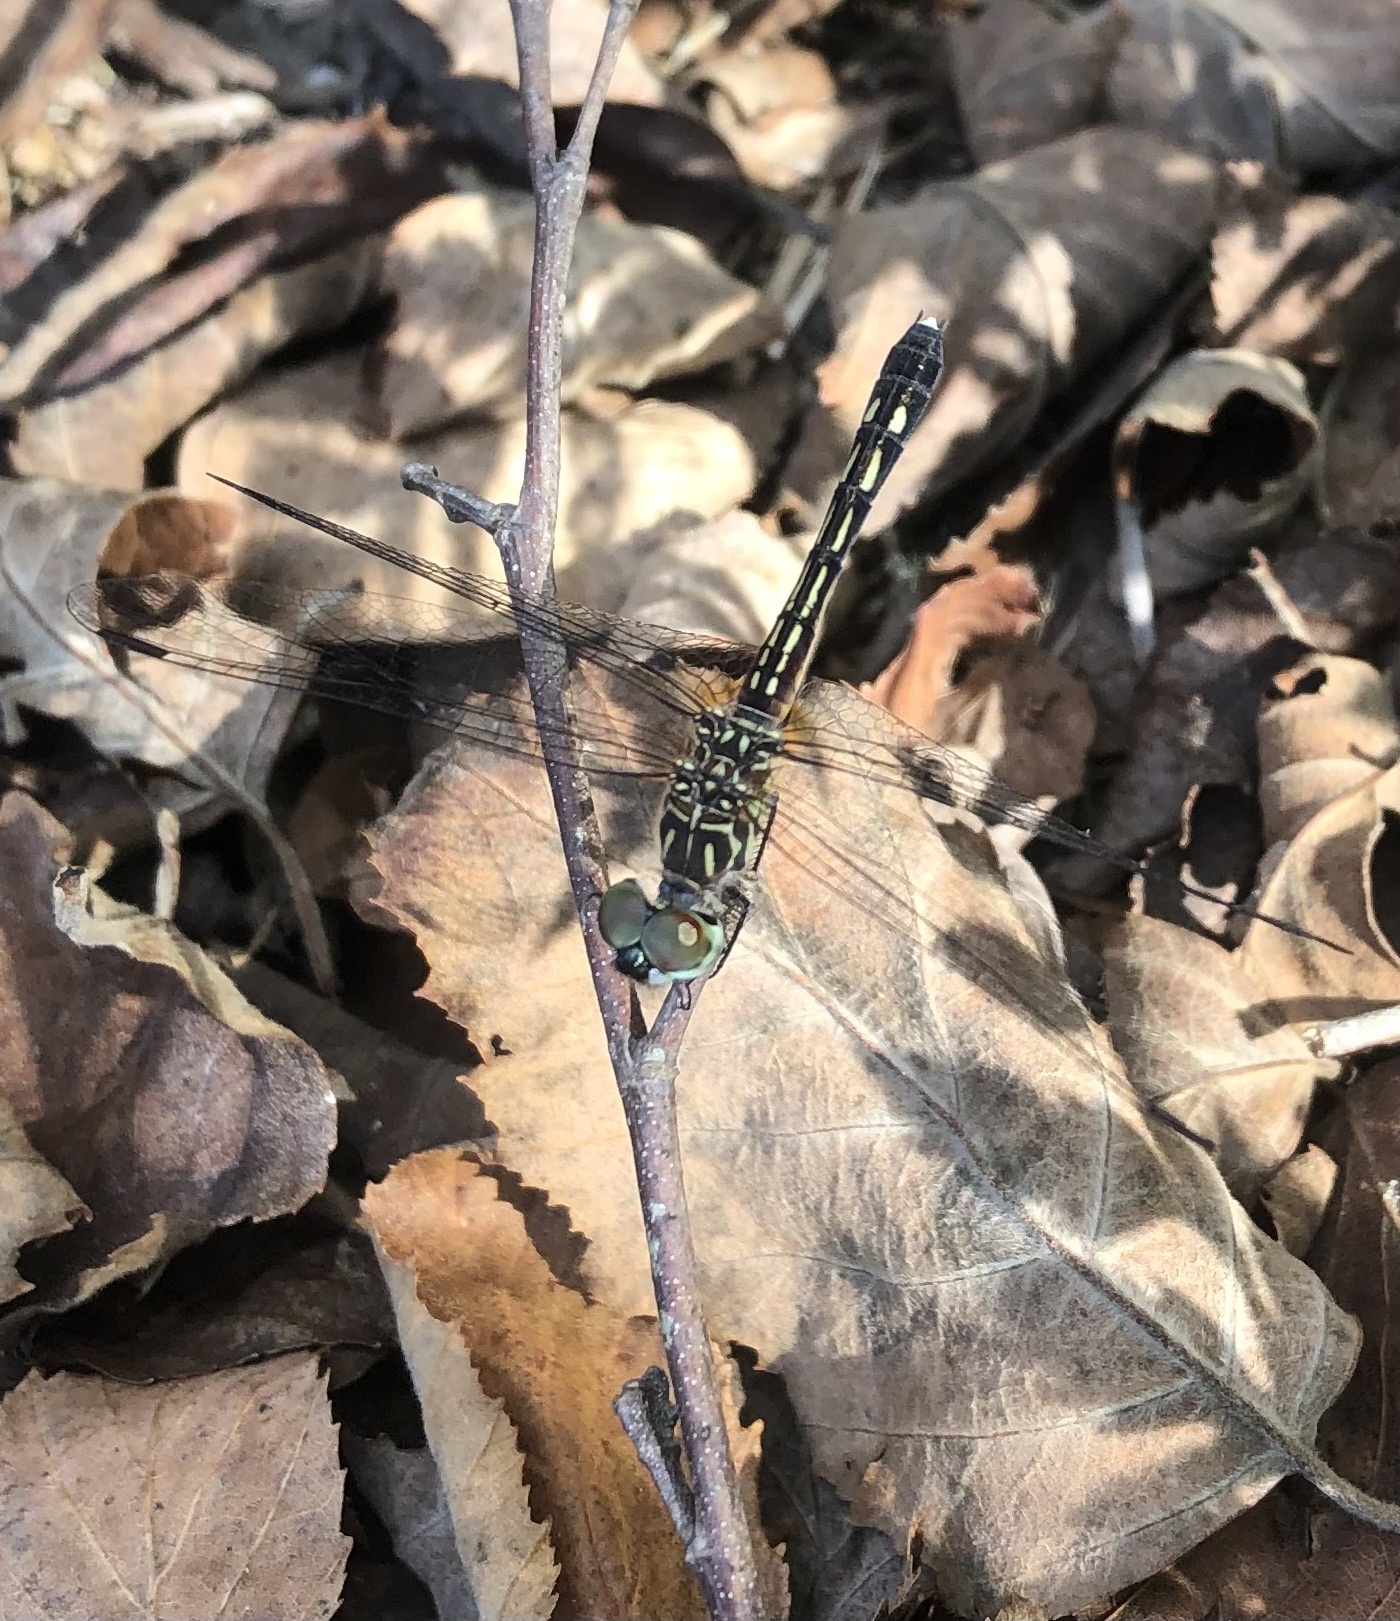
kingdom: Animalia
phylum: Arthropoda
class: Insecta
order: Odonata
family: Libellulidae
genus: Pachydiplax
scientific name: Pachydiplax longipennis
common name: Blue dasher
